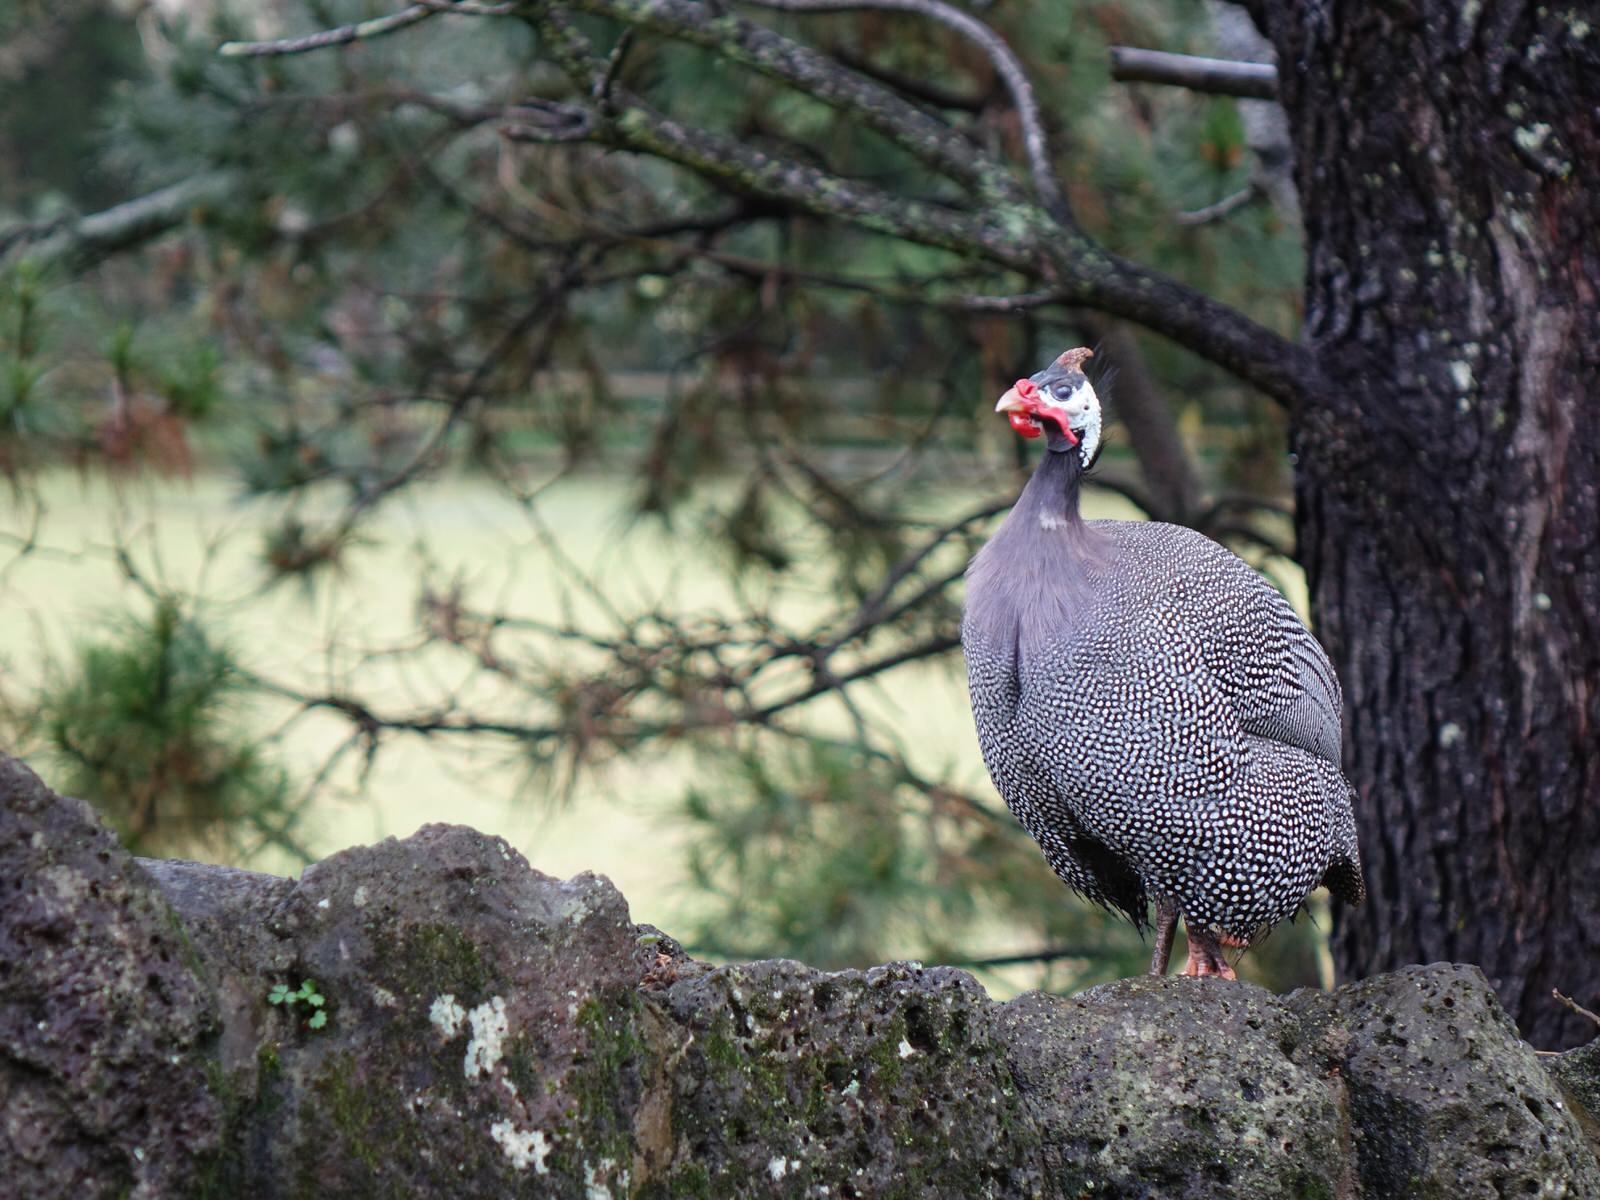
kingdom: Animalia
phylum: Chordata
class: Aves
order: Galliformes
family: Numididae
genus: Numida
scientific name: Numida meleagris
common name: Helmeted guineafowl
